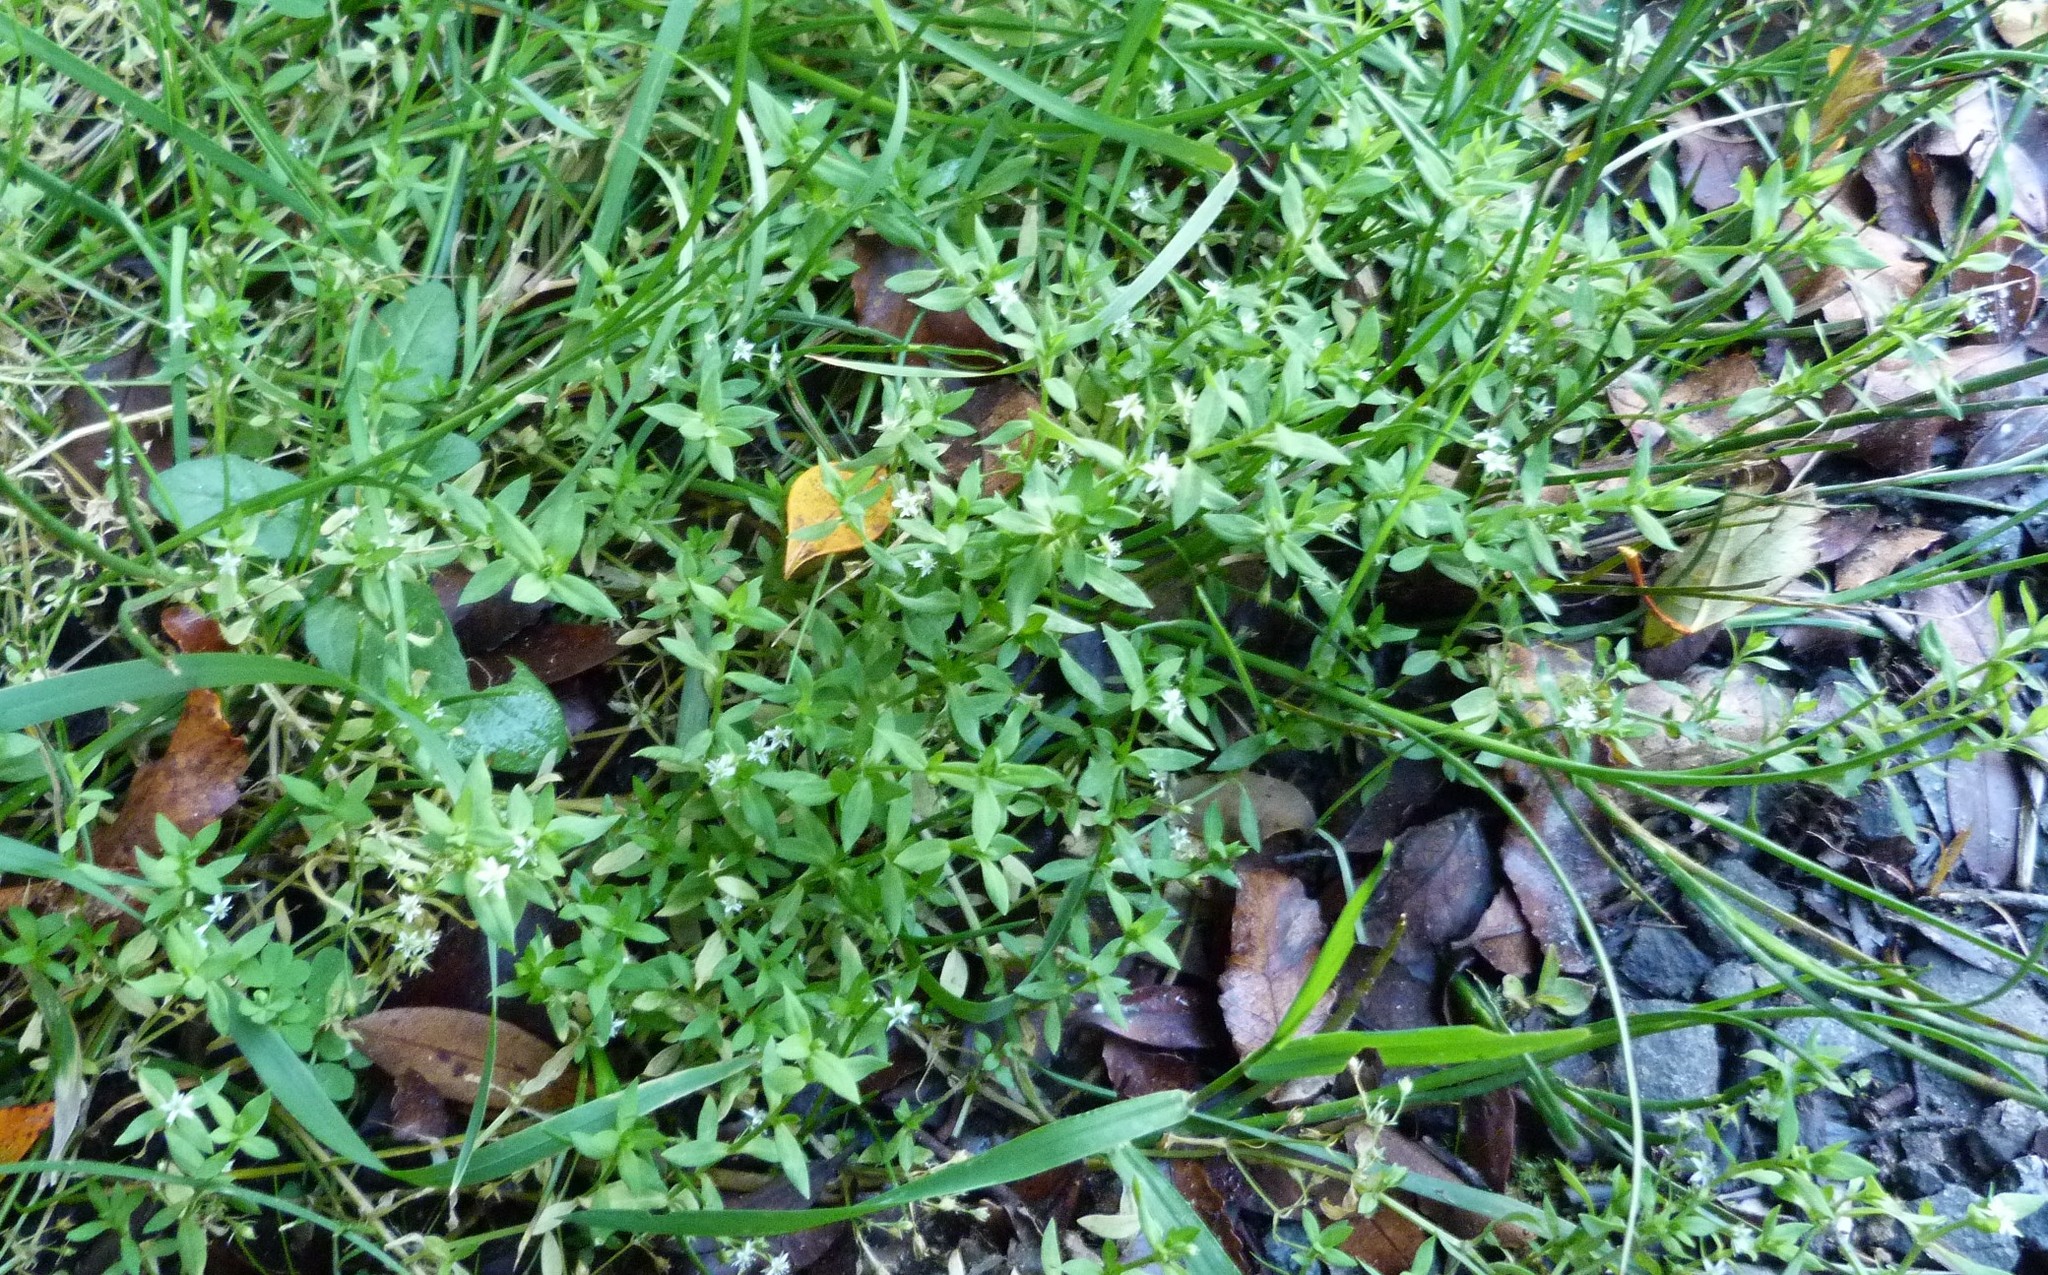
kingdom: Plantae
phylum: Tracheophyta
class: Magnoliopsida
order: Caryophyllales
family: Caryophyllaceae
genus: Stellaria
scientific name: Stellaria alsine
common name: Bog stitchwort
